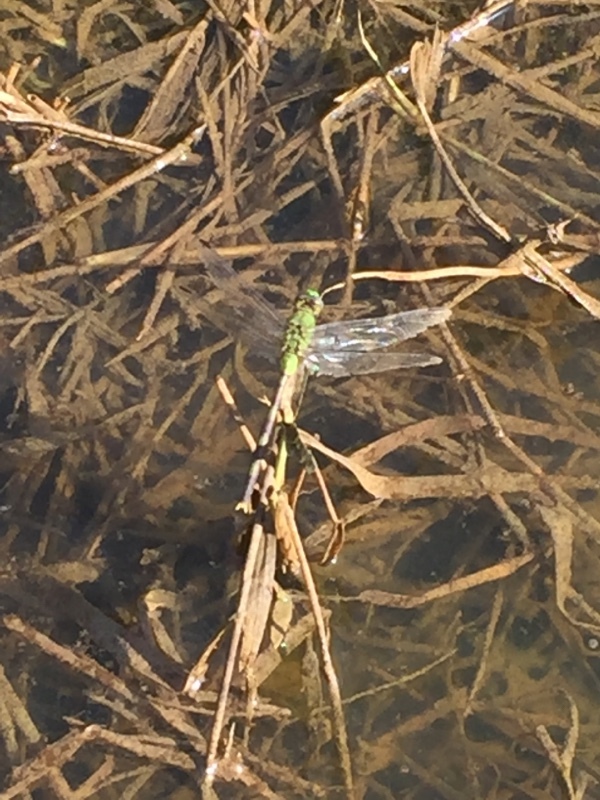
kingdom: Animalia
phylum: Arthropoda
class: Insecta
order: Odonata
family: Libellulidae
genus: Erythemis
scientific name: Erythemis vesiculosa
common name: Great pondhawk
